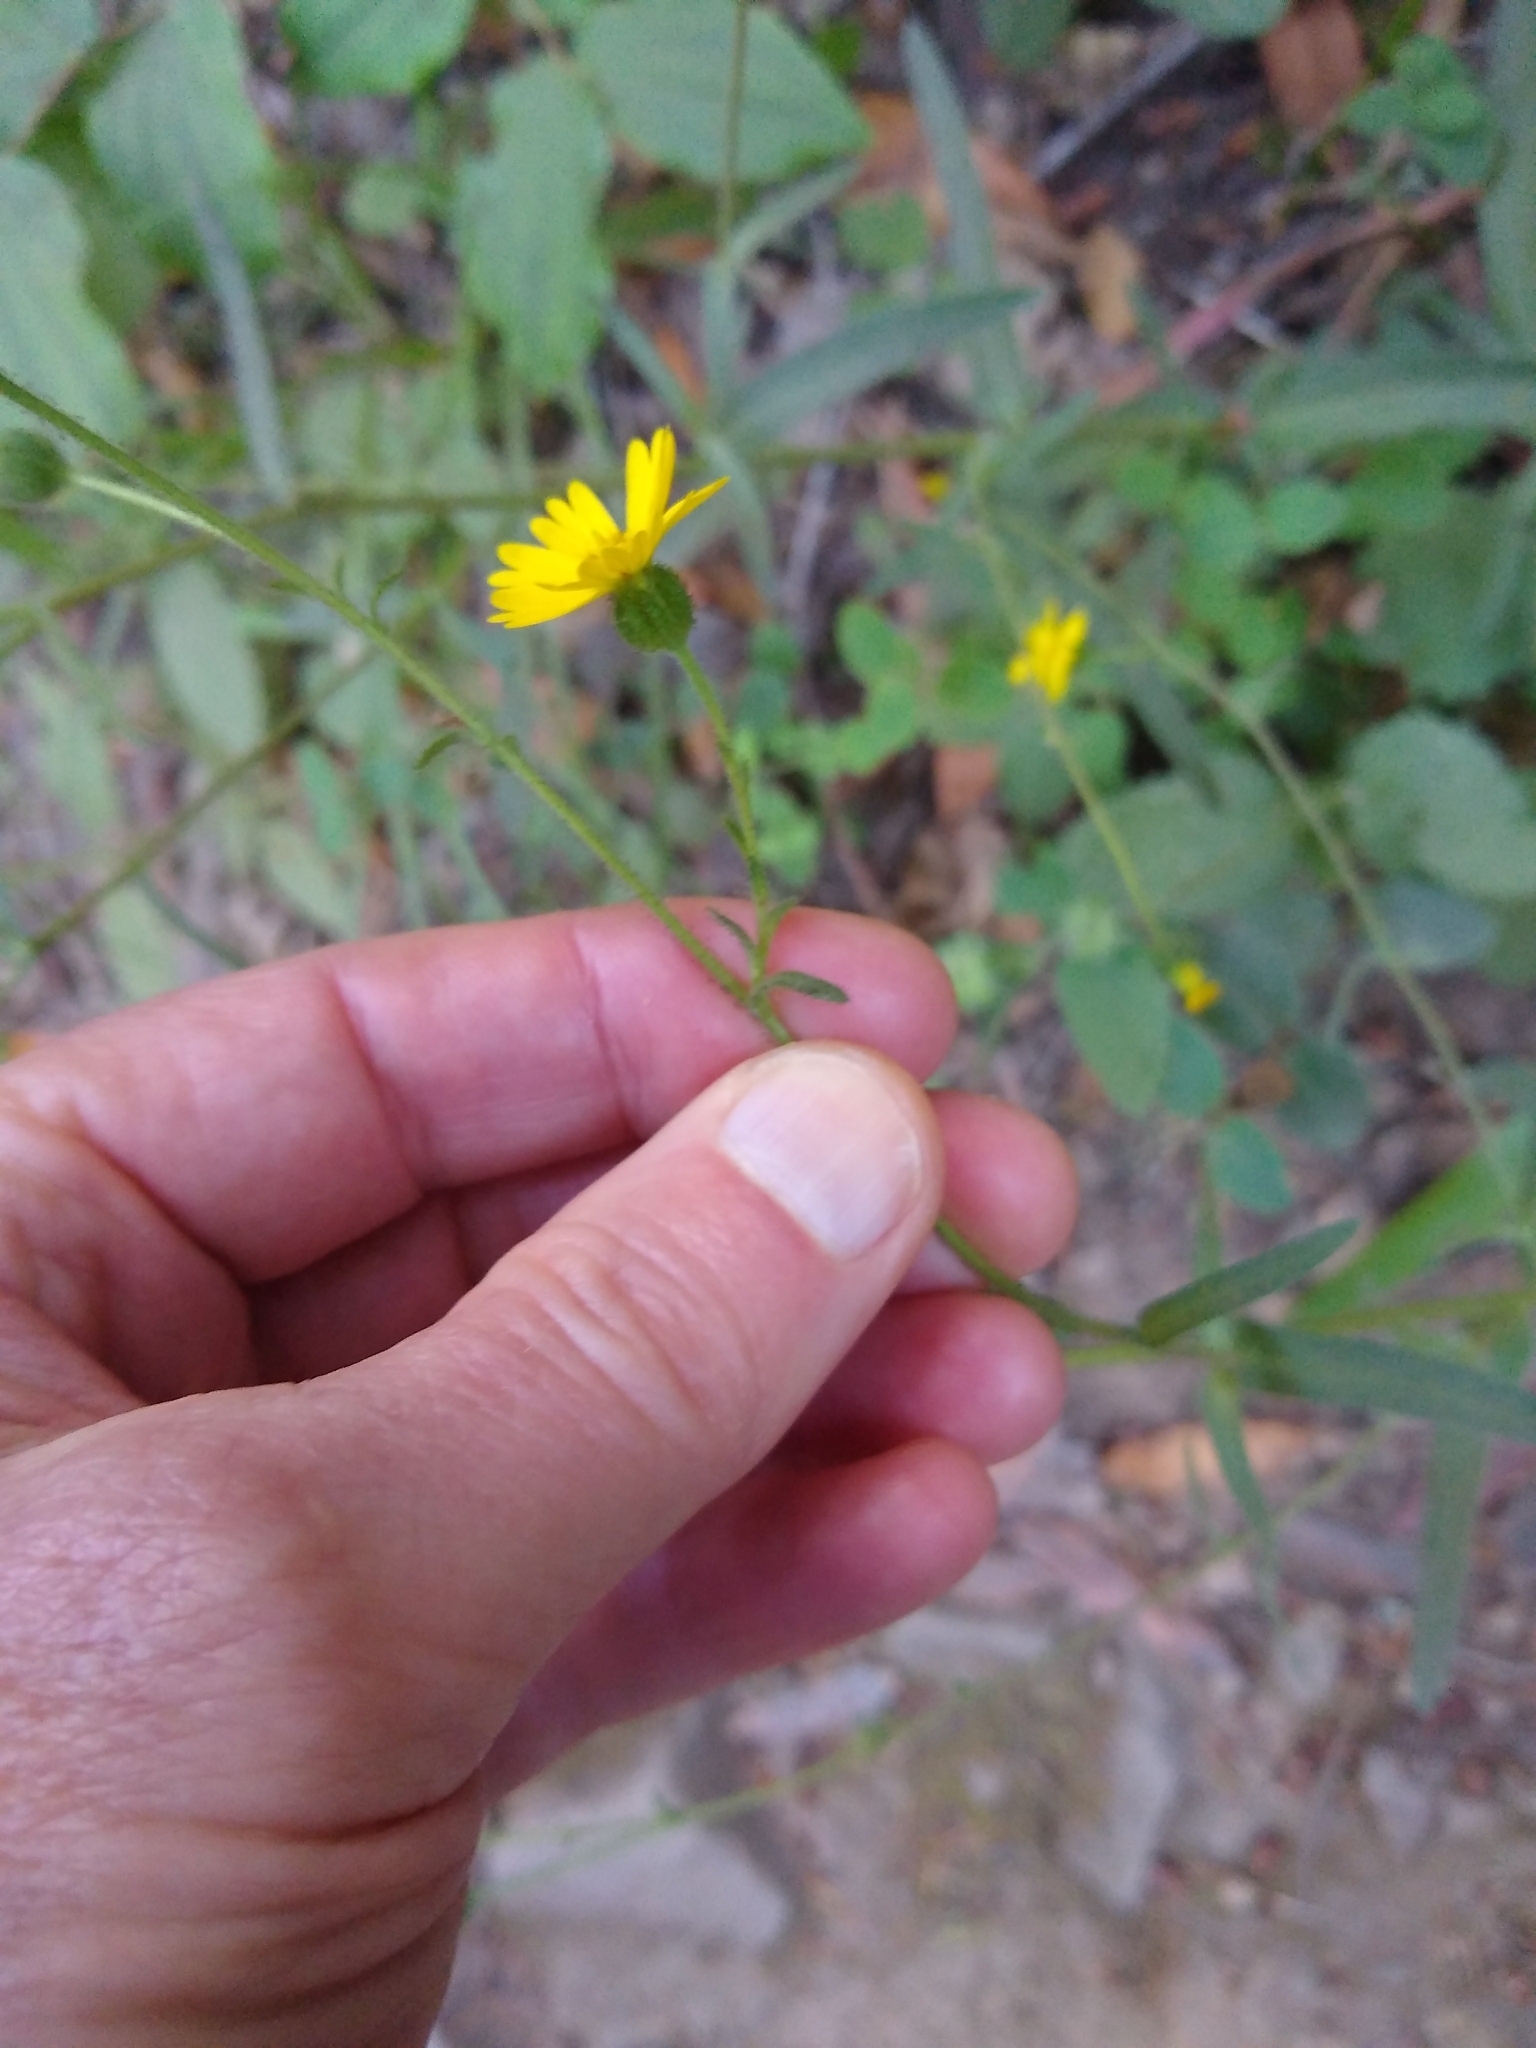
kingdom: Plantae
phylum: Tracheophyta
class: Magnoliopsida
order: Asterales
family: Asteraceae
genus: Anisocarpus
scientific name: Anisocarpus madioides
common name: Woodland madia
